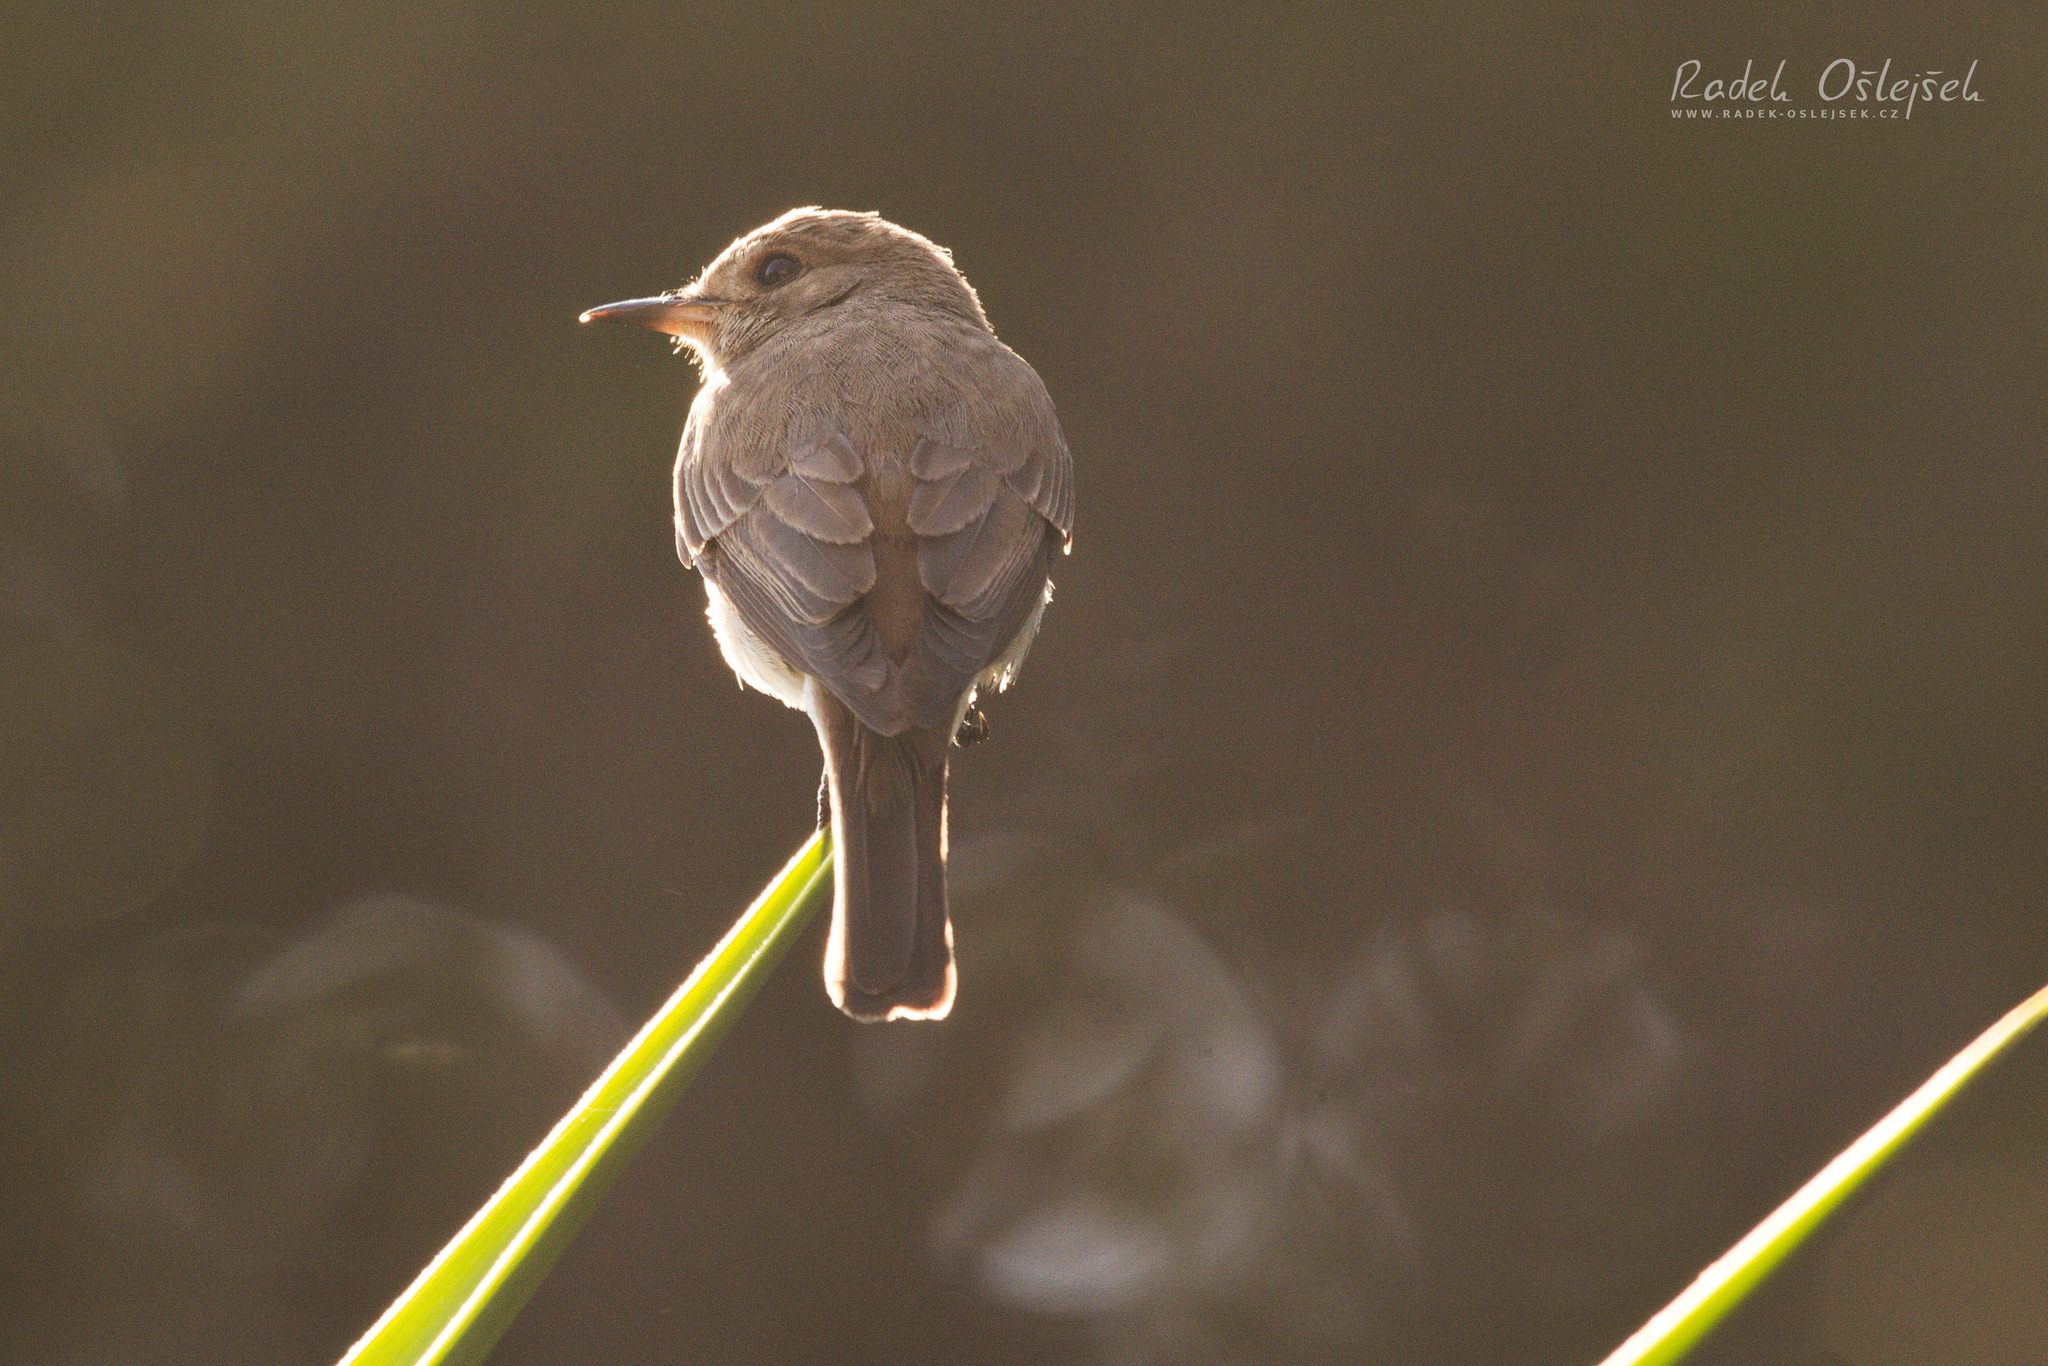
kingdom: Animalia
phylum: Chordata
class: Aves
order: Passeriformes
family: Muscicapidae
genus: Muscicapa
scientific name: Muscicapa striata
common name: Spotted flycatcher
